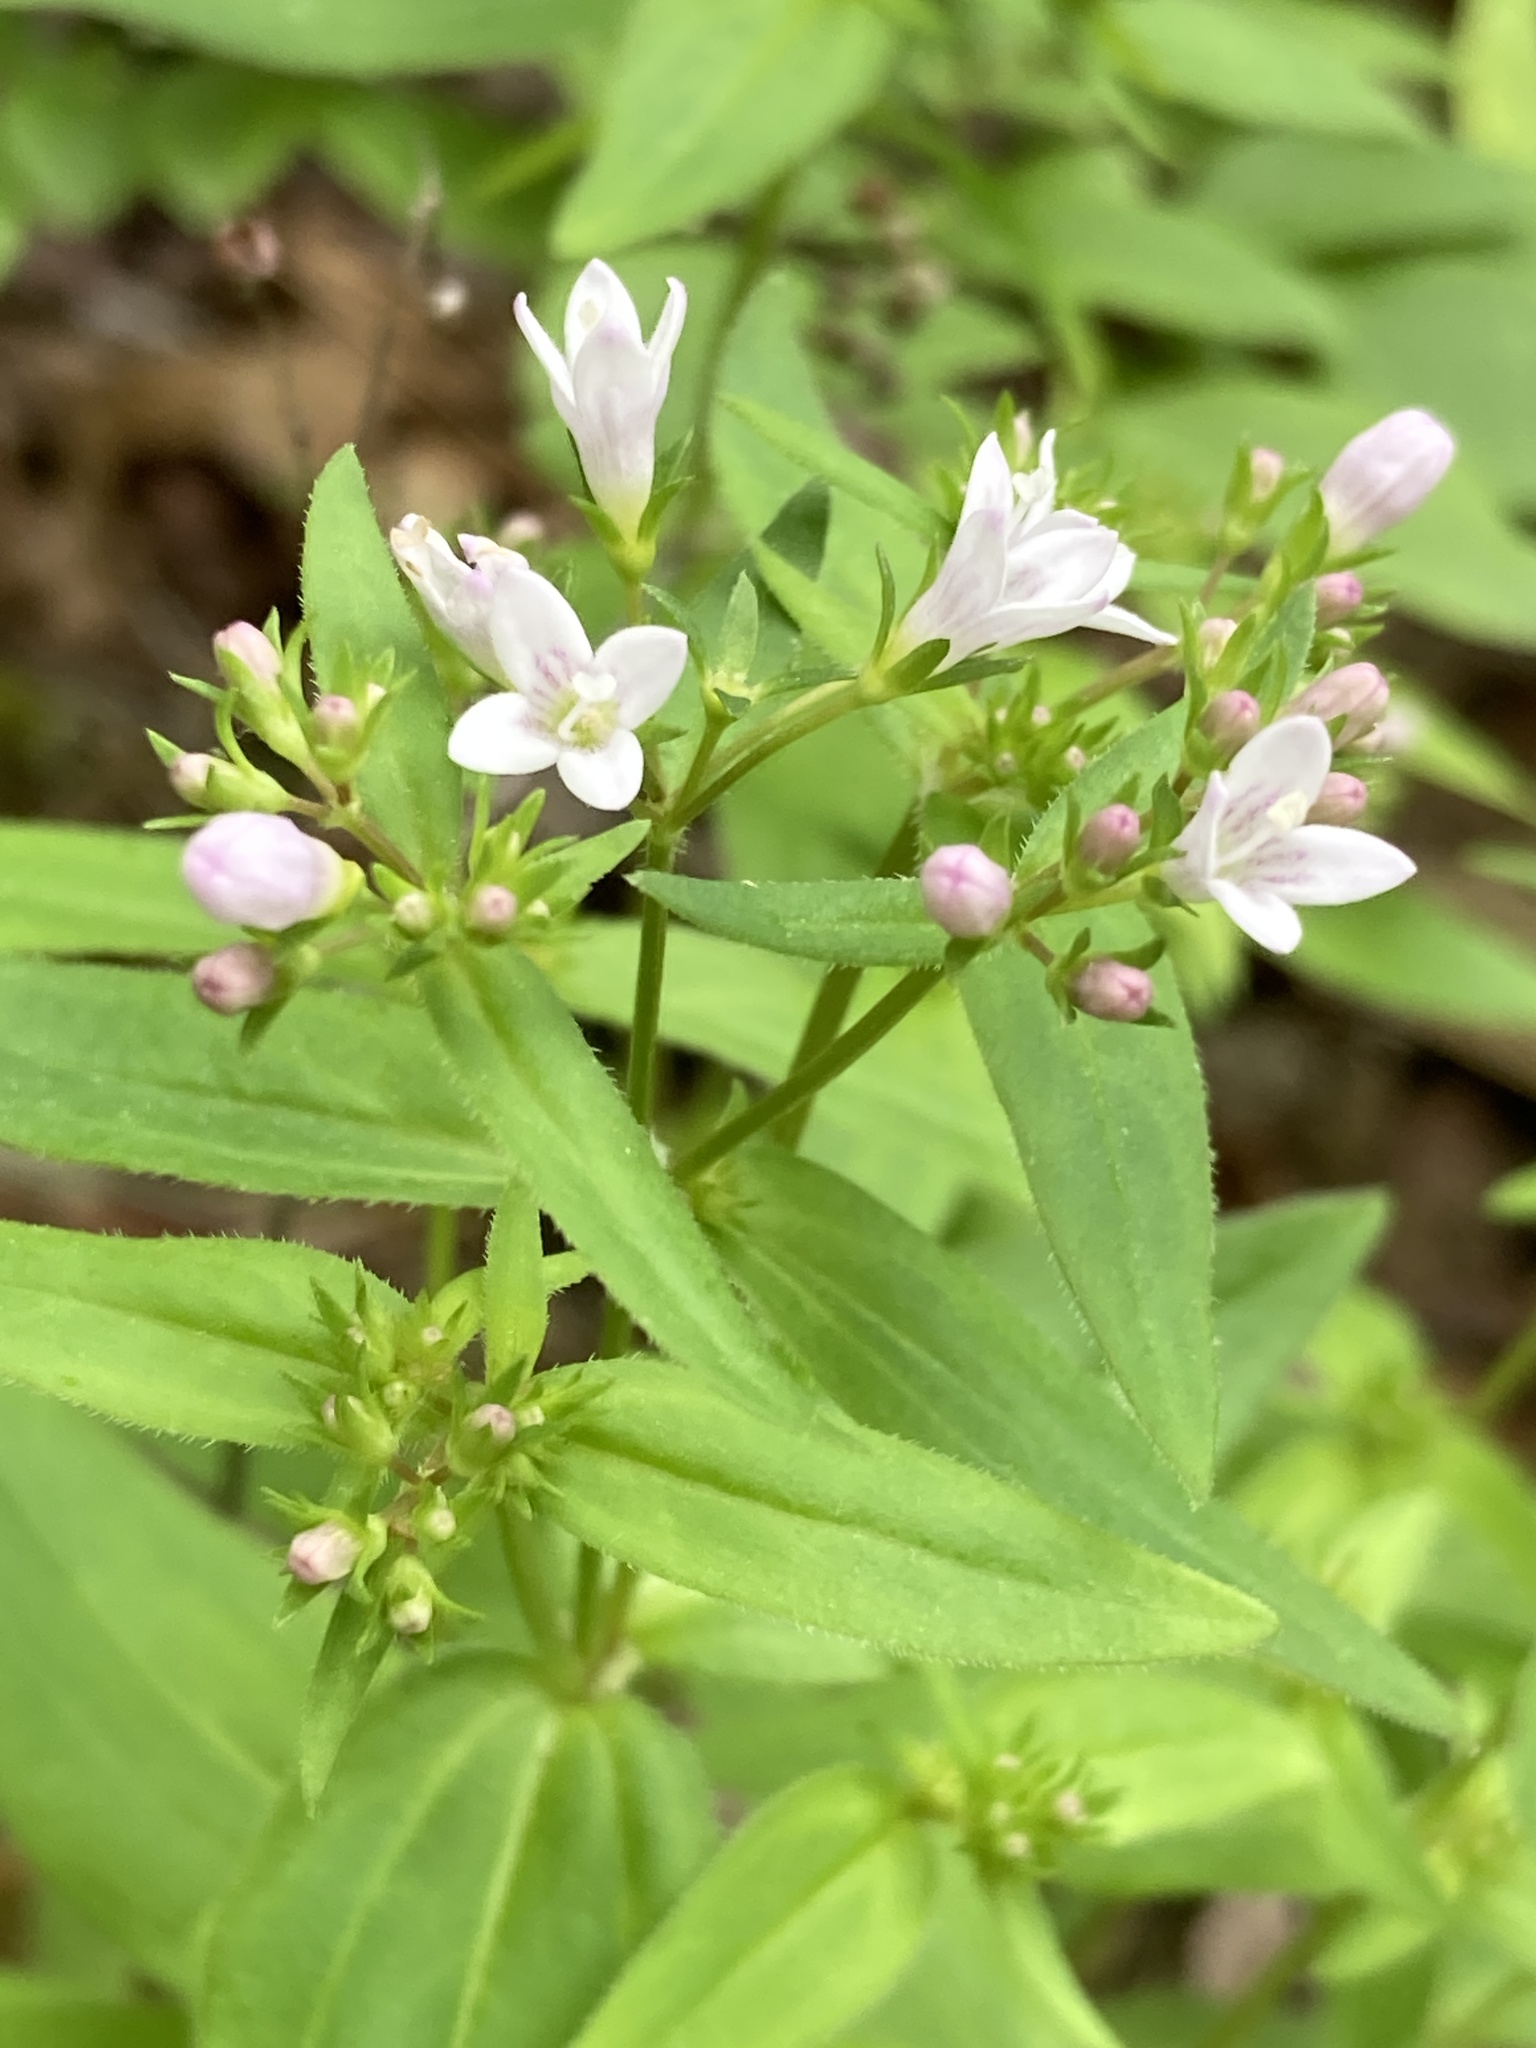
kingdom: Plantae
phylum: Tracheophyta
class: Magnoliopsida
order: Gentianales
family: Rubiaceae
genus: Houstonia
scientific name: Houstonia purpurea
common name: Summer bluet
